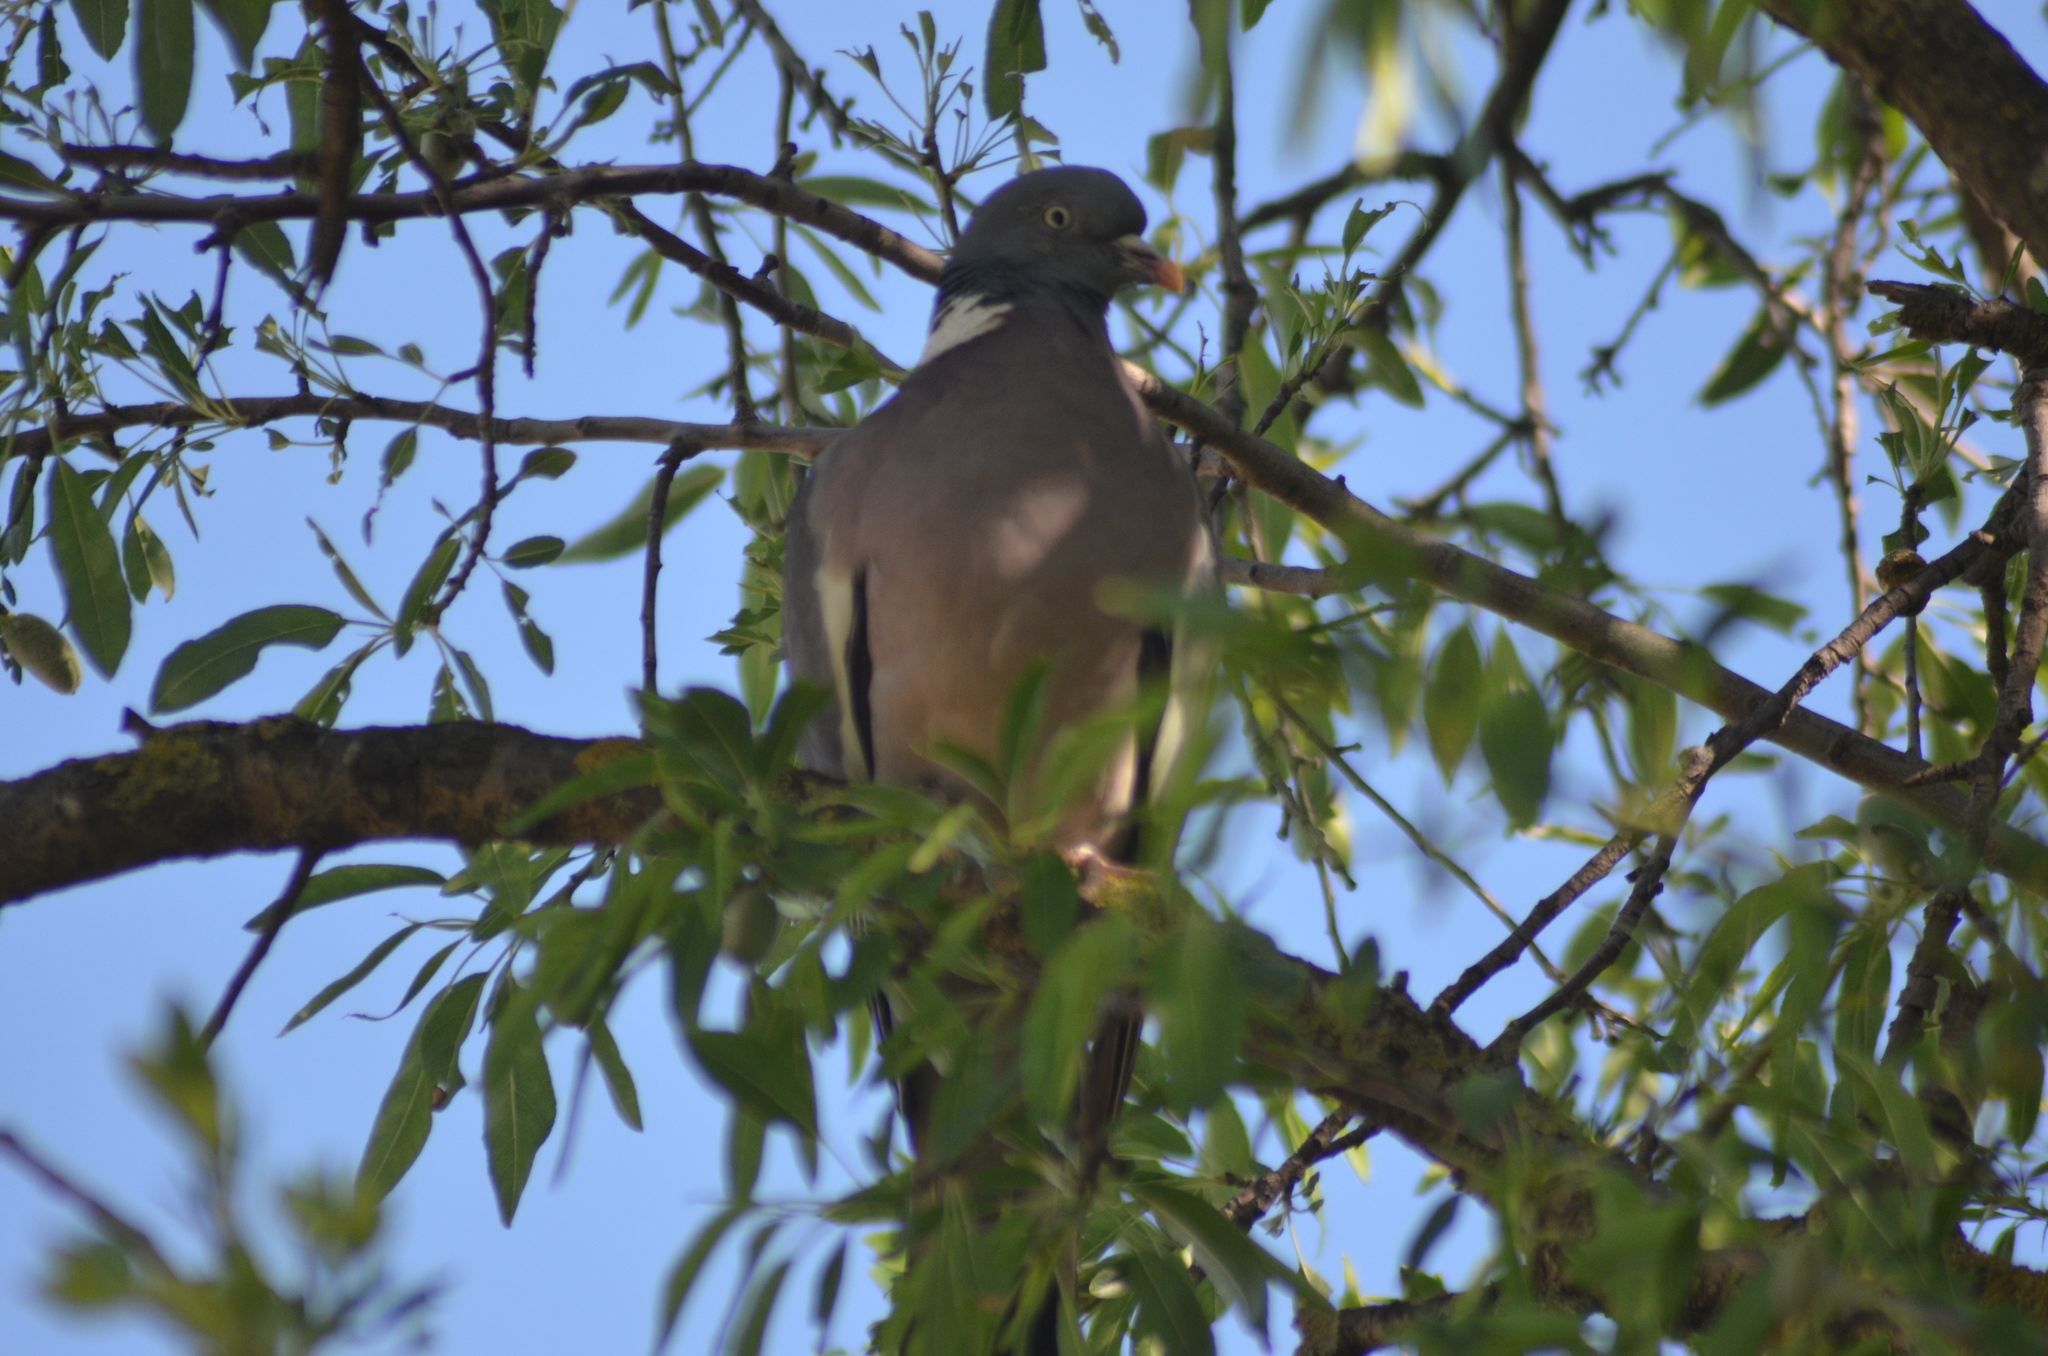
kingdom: Animalia
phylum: Chordata
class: Aves
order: Columbiformes
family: Columbidae
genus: Columba
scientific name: Columba palumbus
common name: Common wood pigeon
